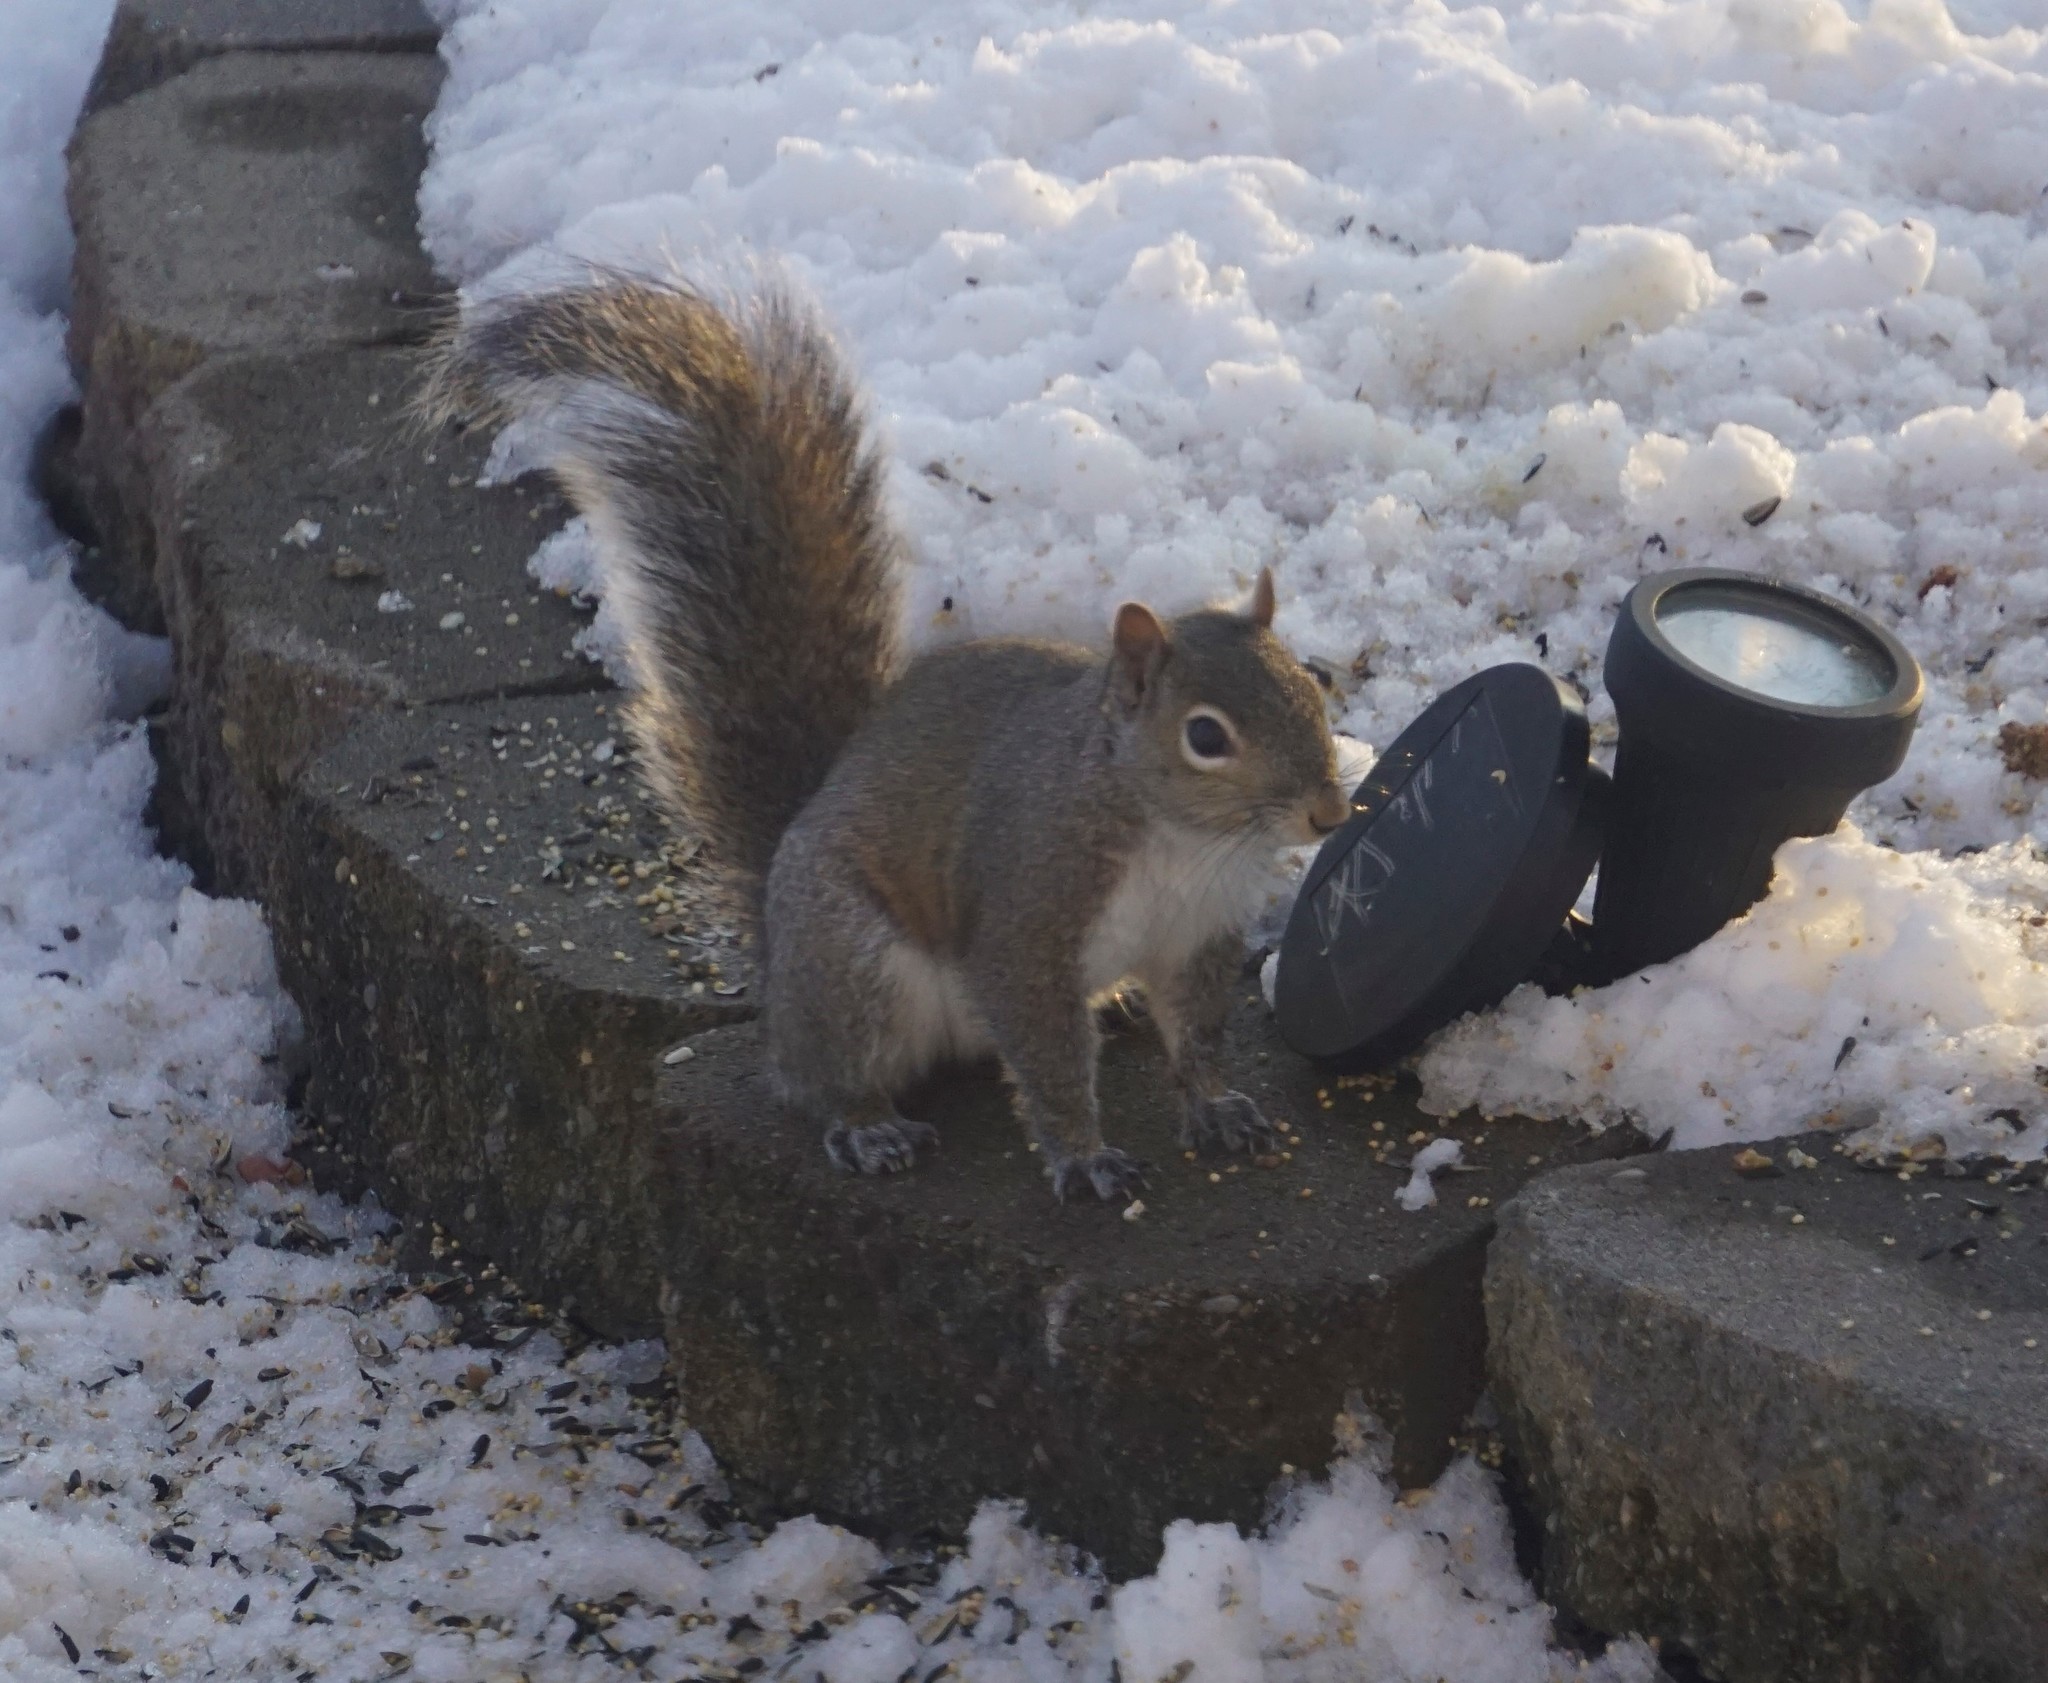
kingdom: Animalia
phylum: Chordata
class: Mammalia
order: Rodentia
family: Sciuridae
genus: Sciurus
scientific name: Sciurus carolinensis
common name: Eastern gray squirrel
